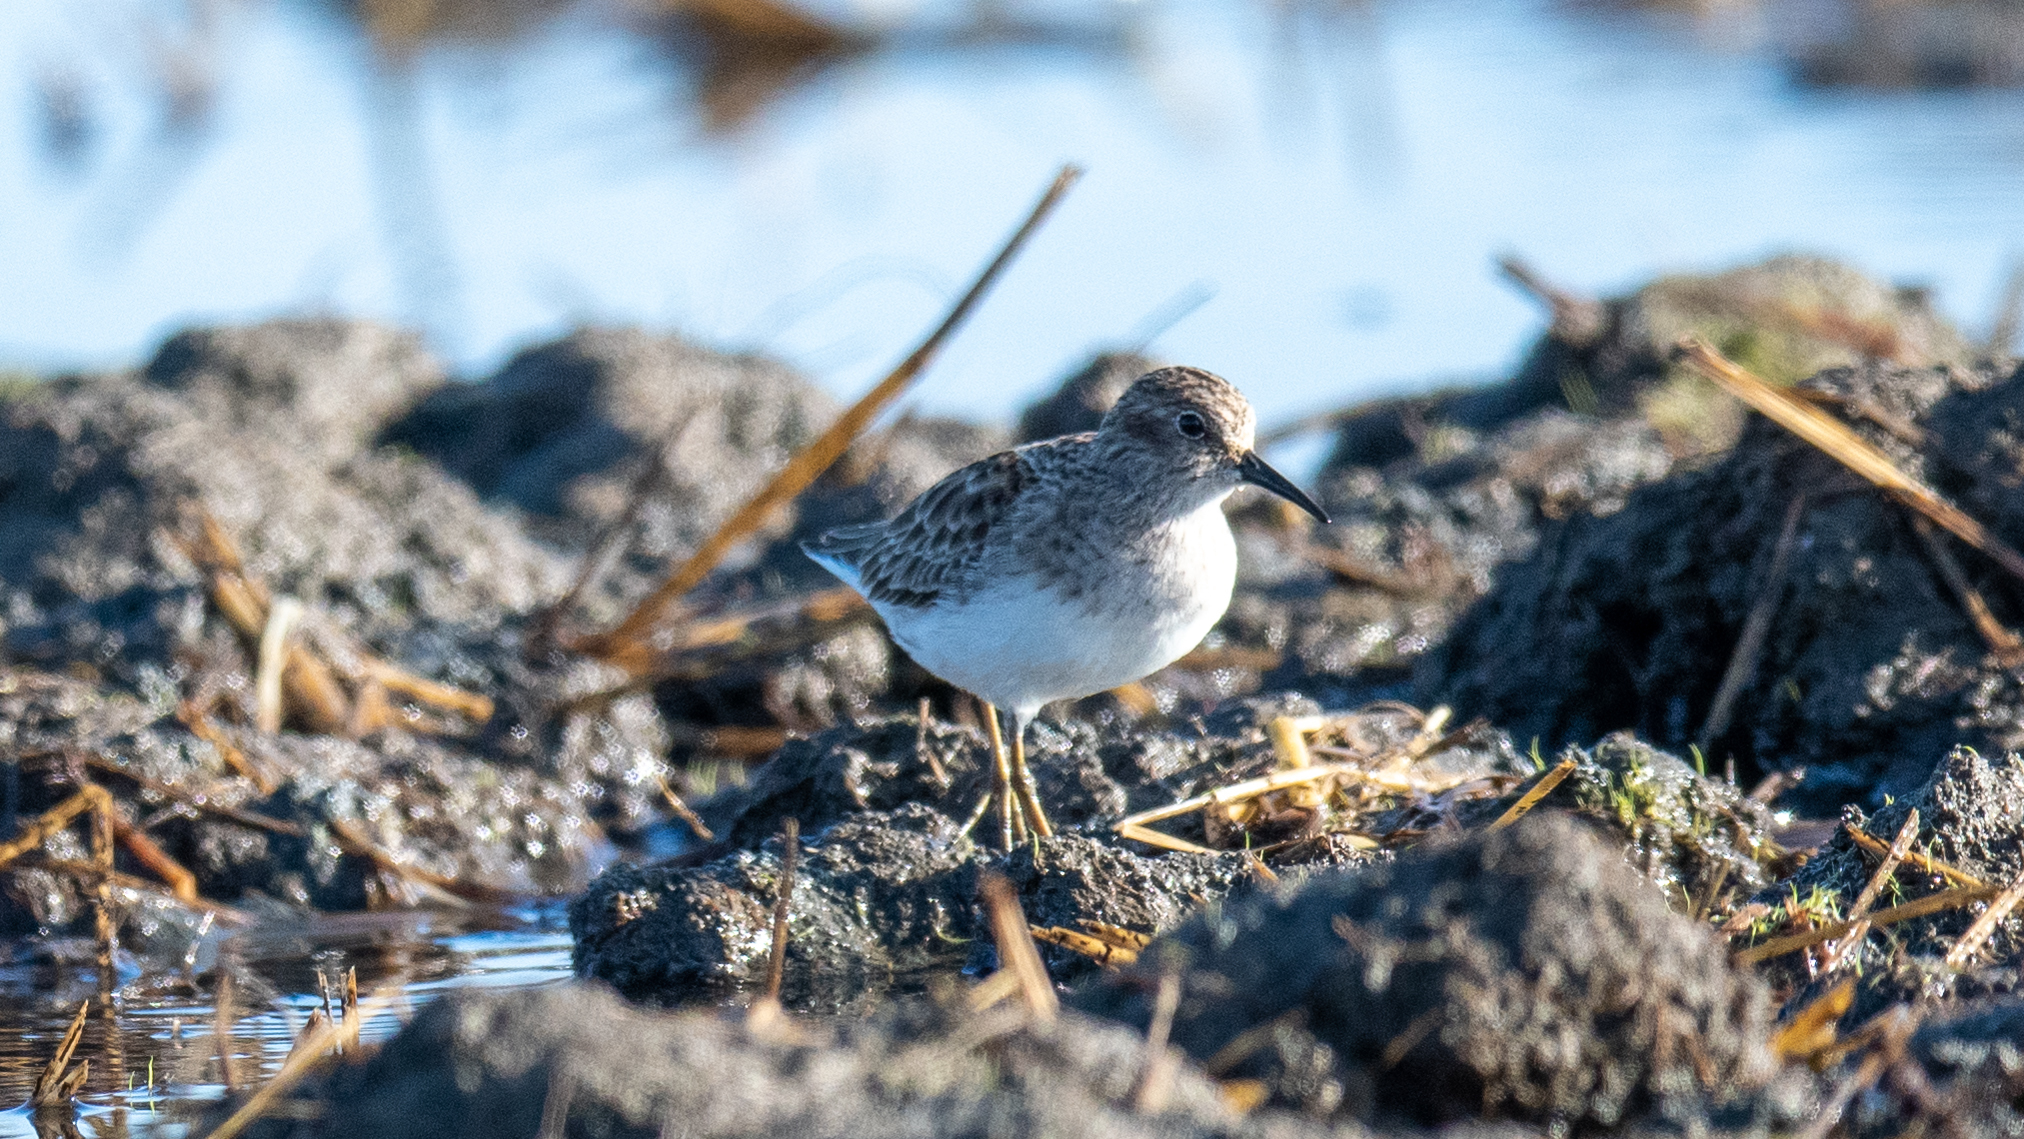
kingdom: Animalia
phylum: Chordata
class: Aves
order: Charadriiformes
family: Scolopacidae
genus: Calidris
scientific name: Calidris minutilla
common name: Least sandpiper
